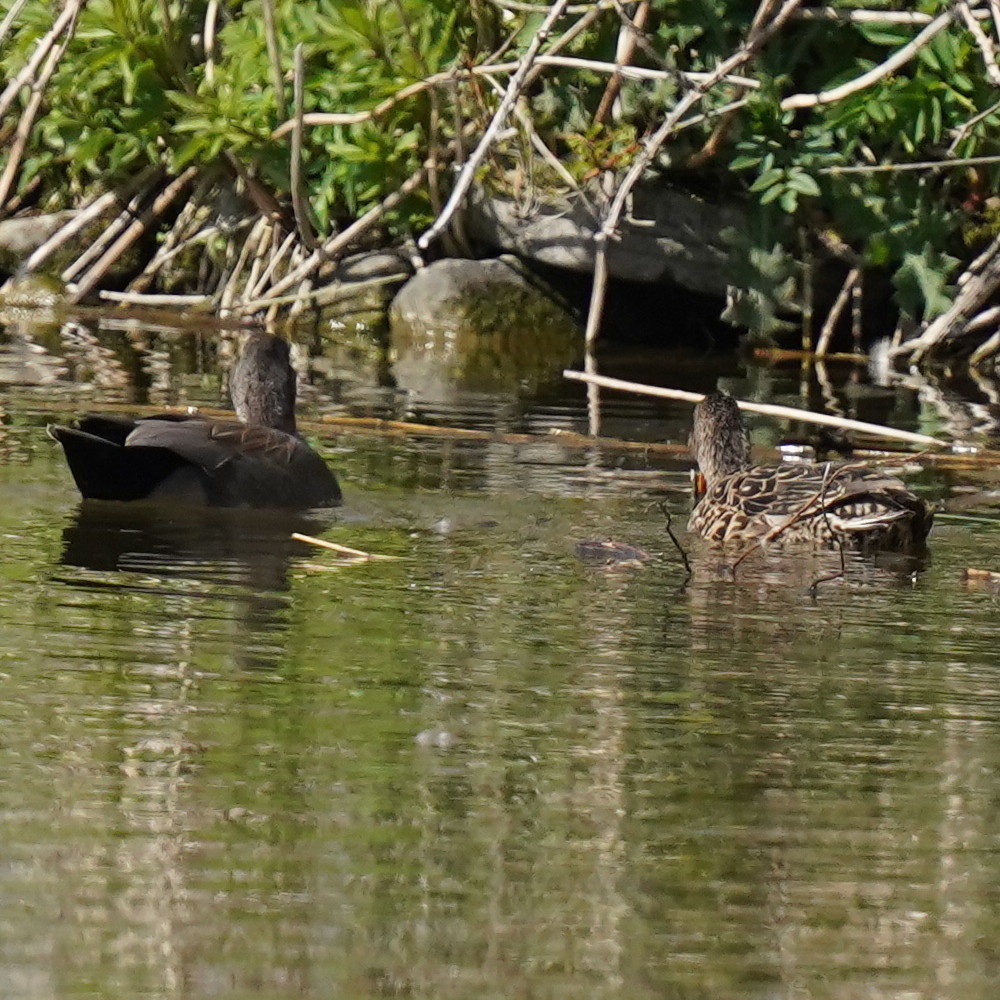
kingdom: Animalia
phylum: Chordata
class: Aves
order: Anseriformes
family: Anatidae
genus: Mareca
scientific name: Mareca strepera
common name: Gadwall
